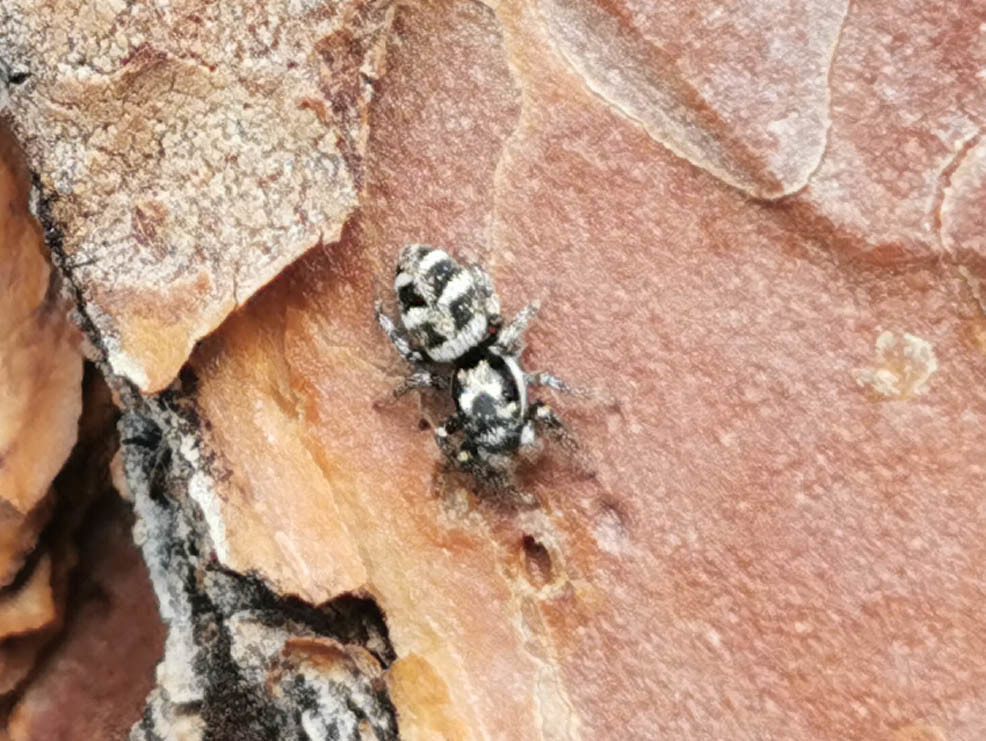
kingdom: Animalia
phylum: Arthropoda
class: Arachnida
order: Araneae
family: Salticidae
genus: Salticus
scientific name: Salticus scenicus
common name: Zebra jumper
